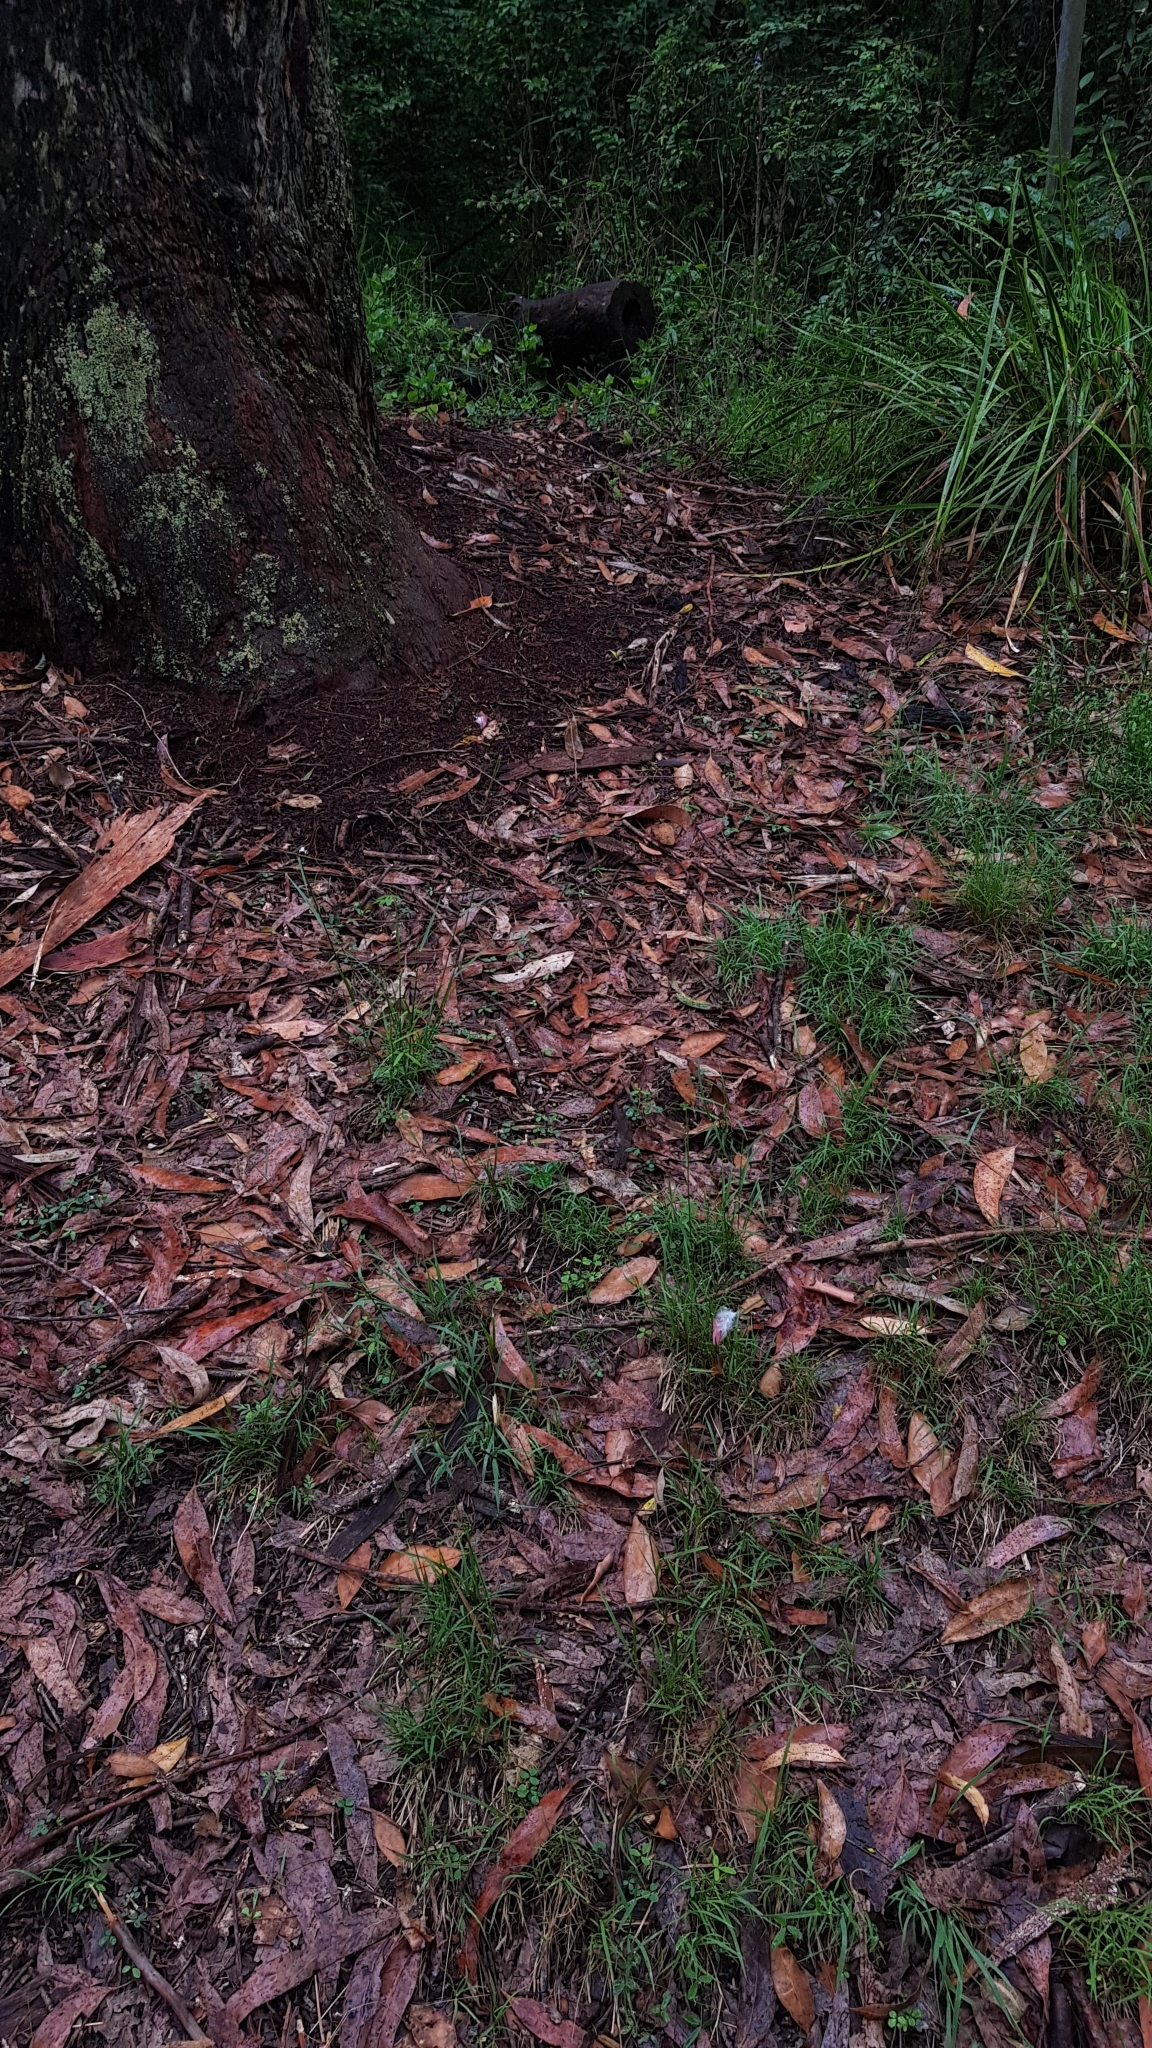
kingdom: Animalia
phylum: Chordata
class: Aves
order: Psittaciformes
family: Psittacidae
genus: Eolophus
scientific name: Eolophus roseicapilla
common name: Galah
